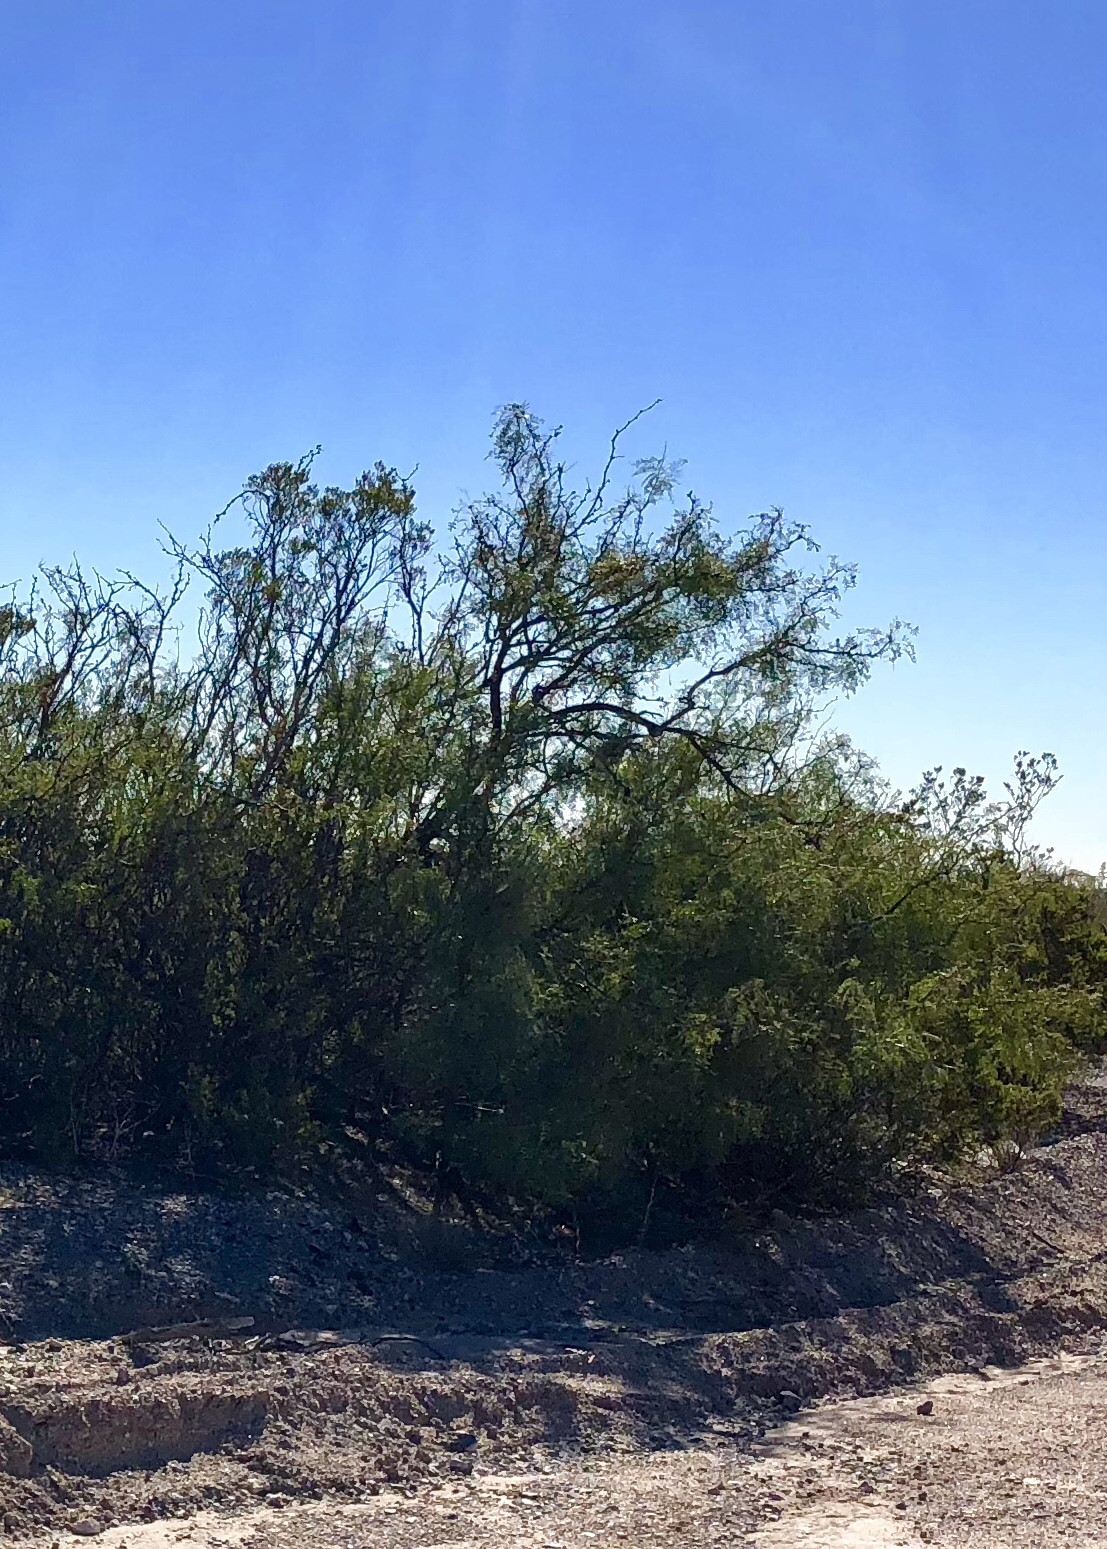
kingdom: Plantae
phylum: Tracheophyta
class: Magnoliopsida
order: Fabales
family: Fabaceae
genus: Prosopis
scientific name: Prosopis glandulosa
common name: Honey mesquite
